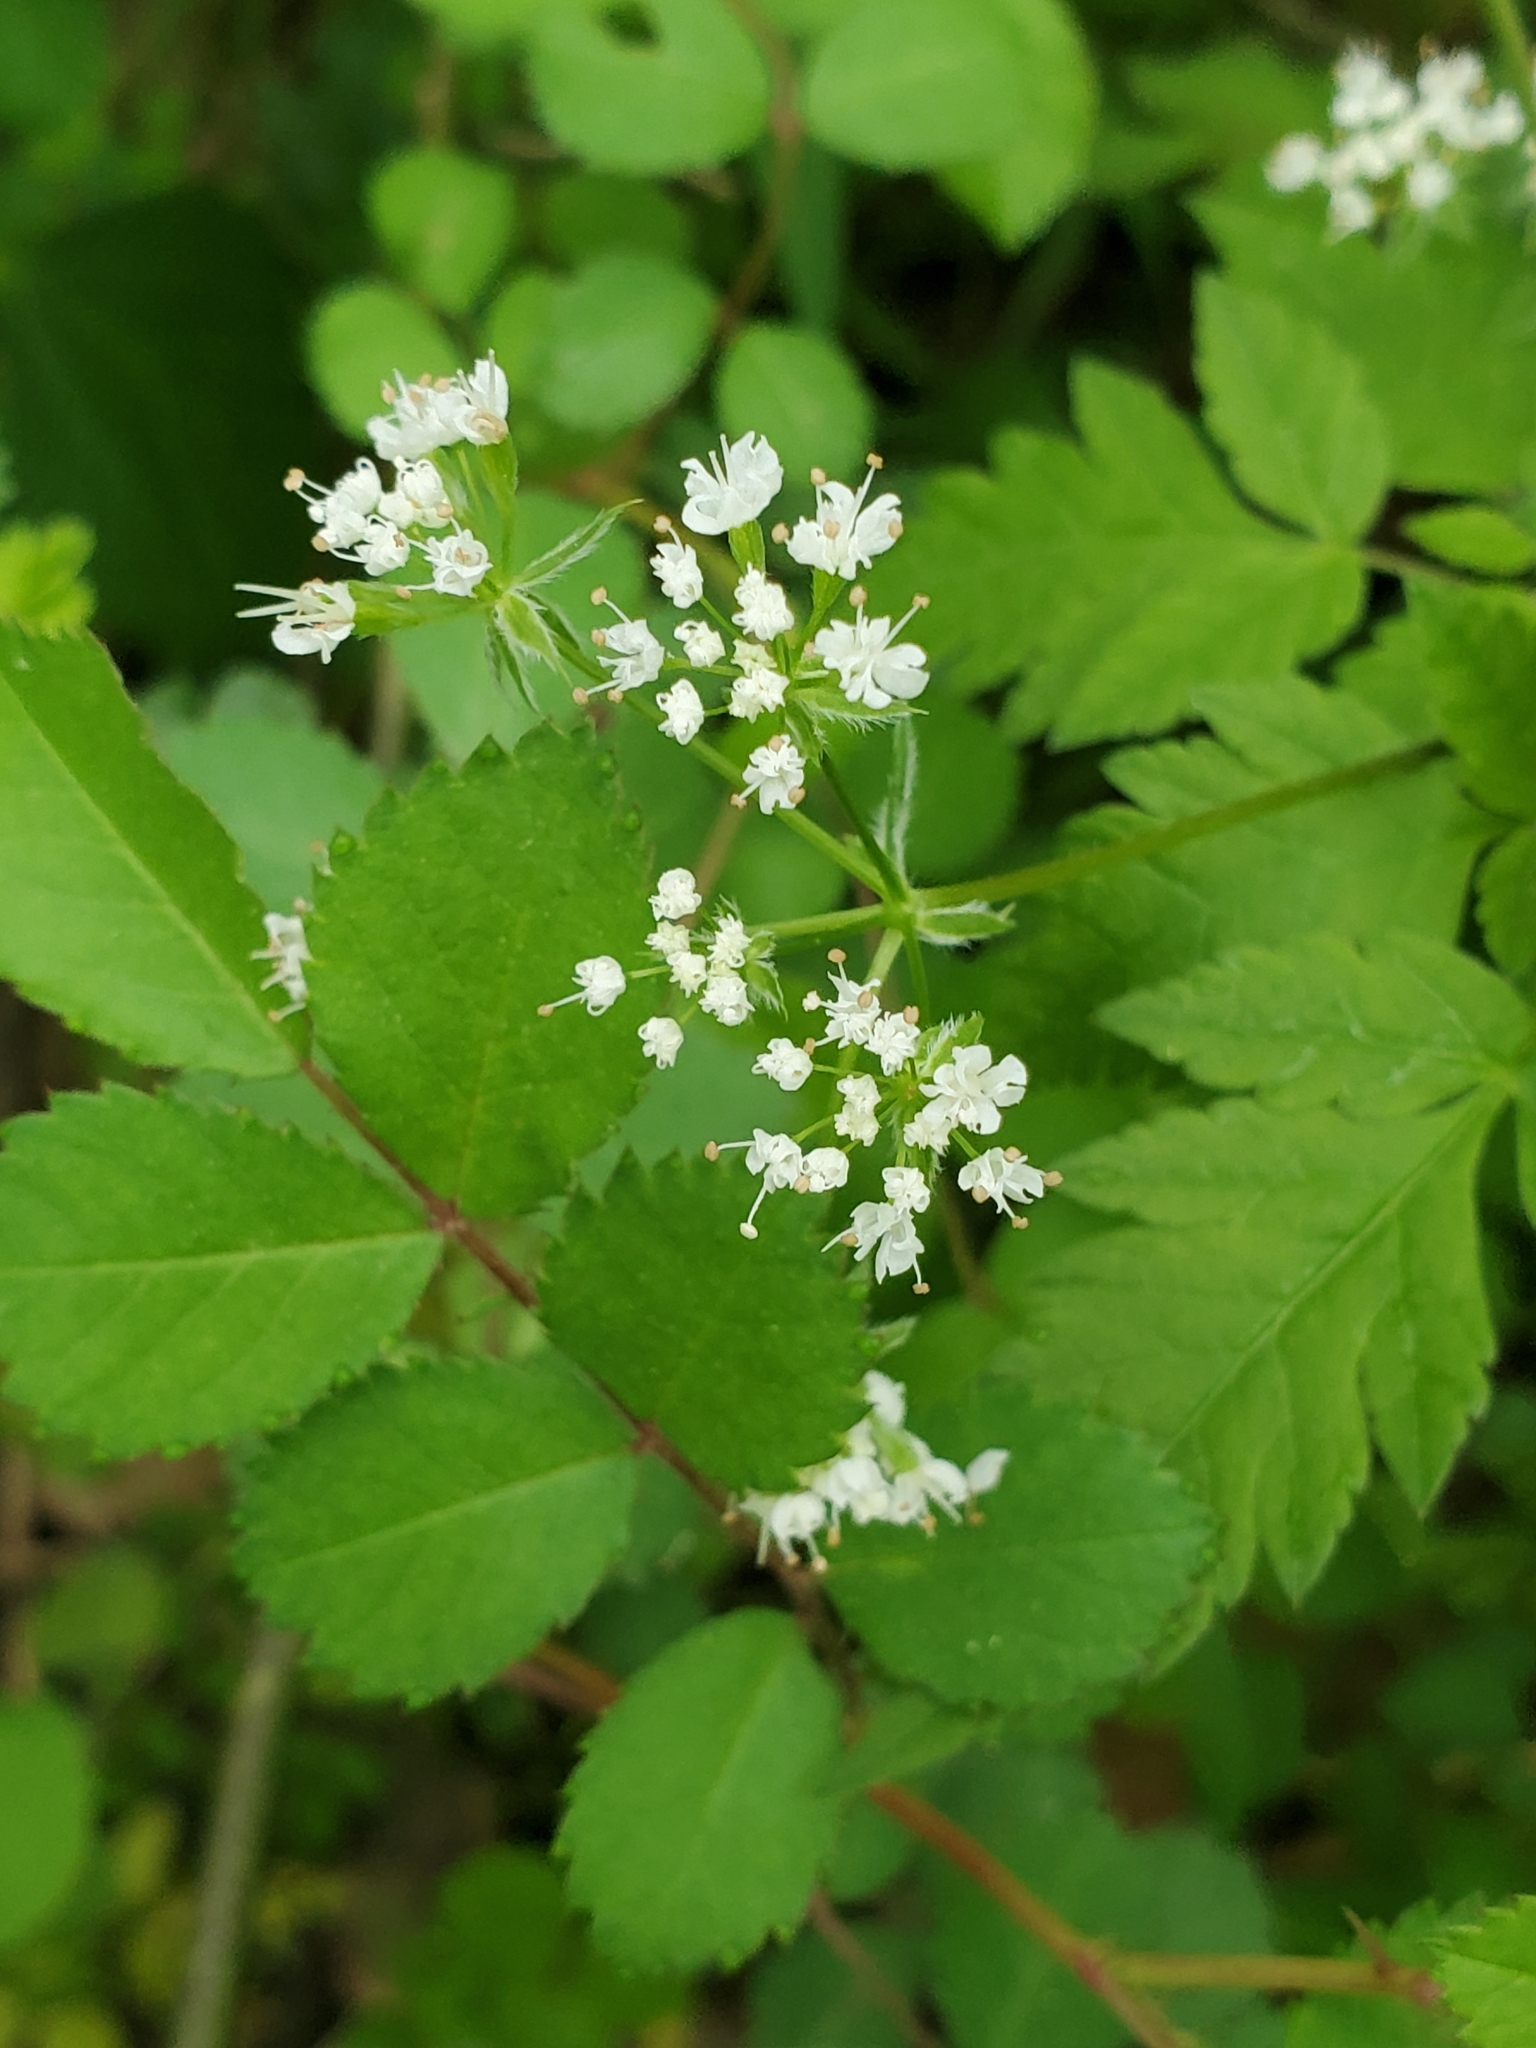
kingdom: Plantae
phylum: Tracheophyta
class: Magnoliopsida
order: Apiales
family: Apiaceae
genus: Osmorhiza
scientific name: Osmorhiza longistylis
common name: Smooth sweet cicely
